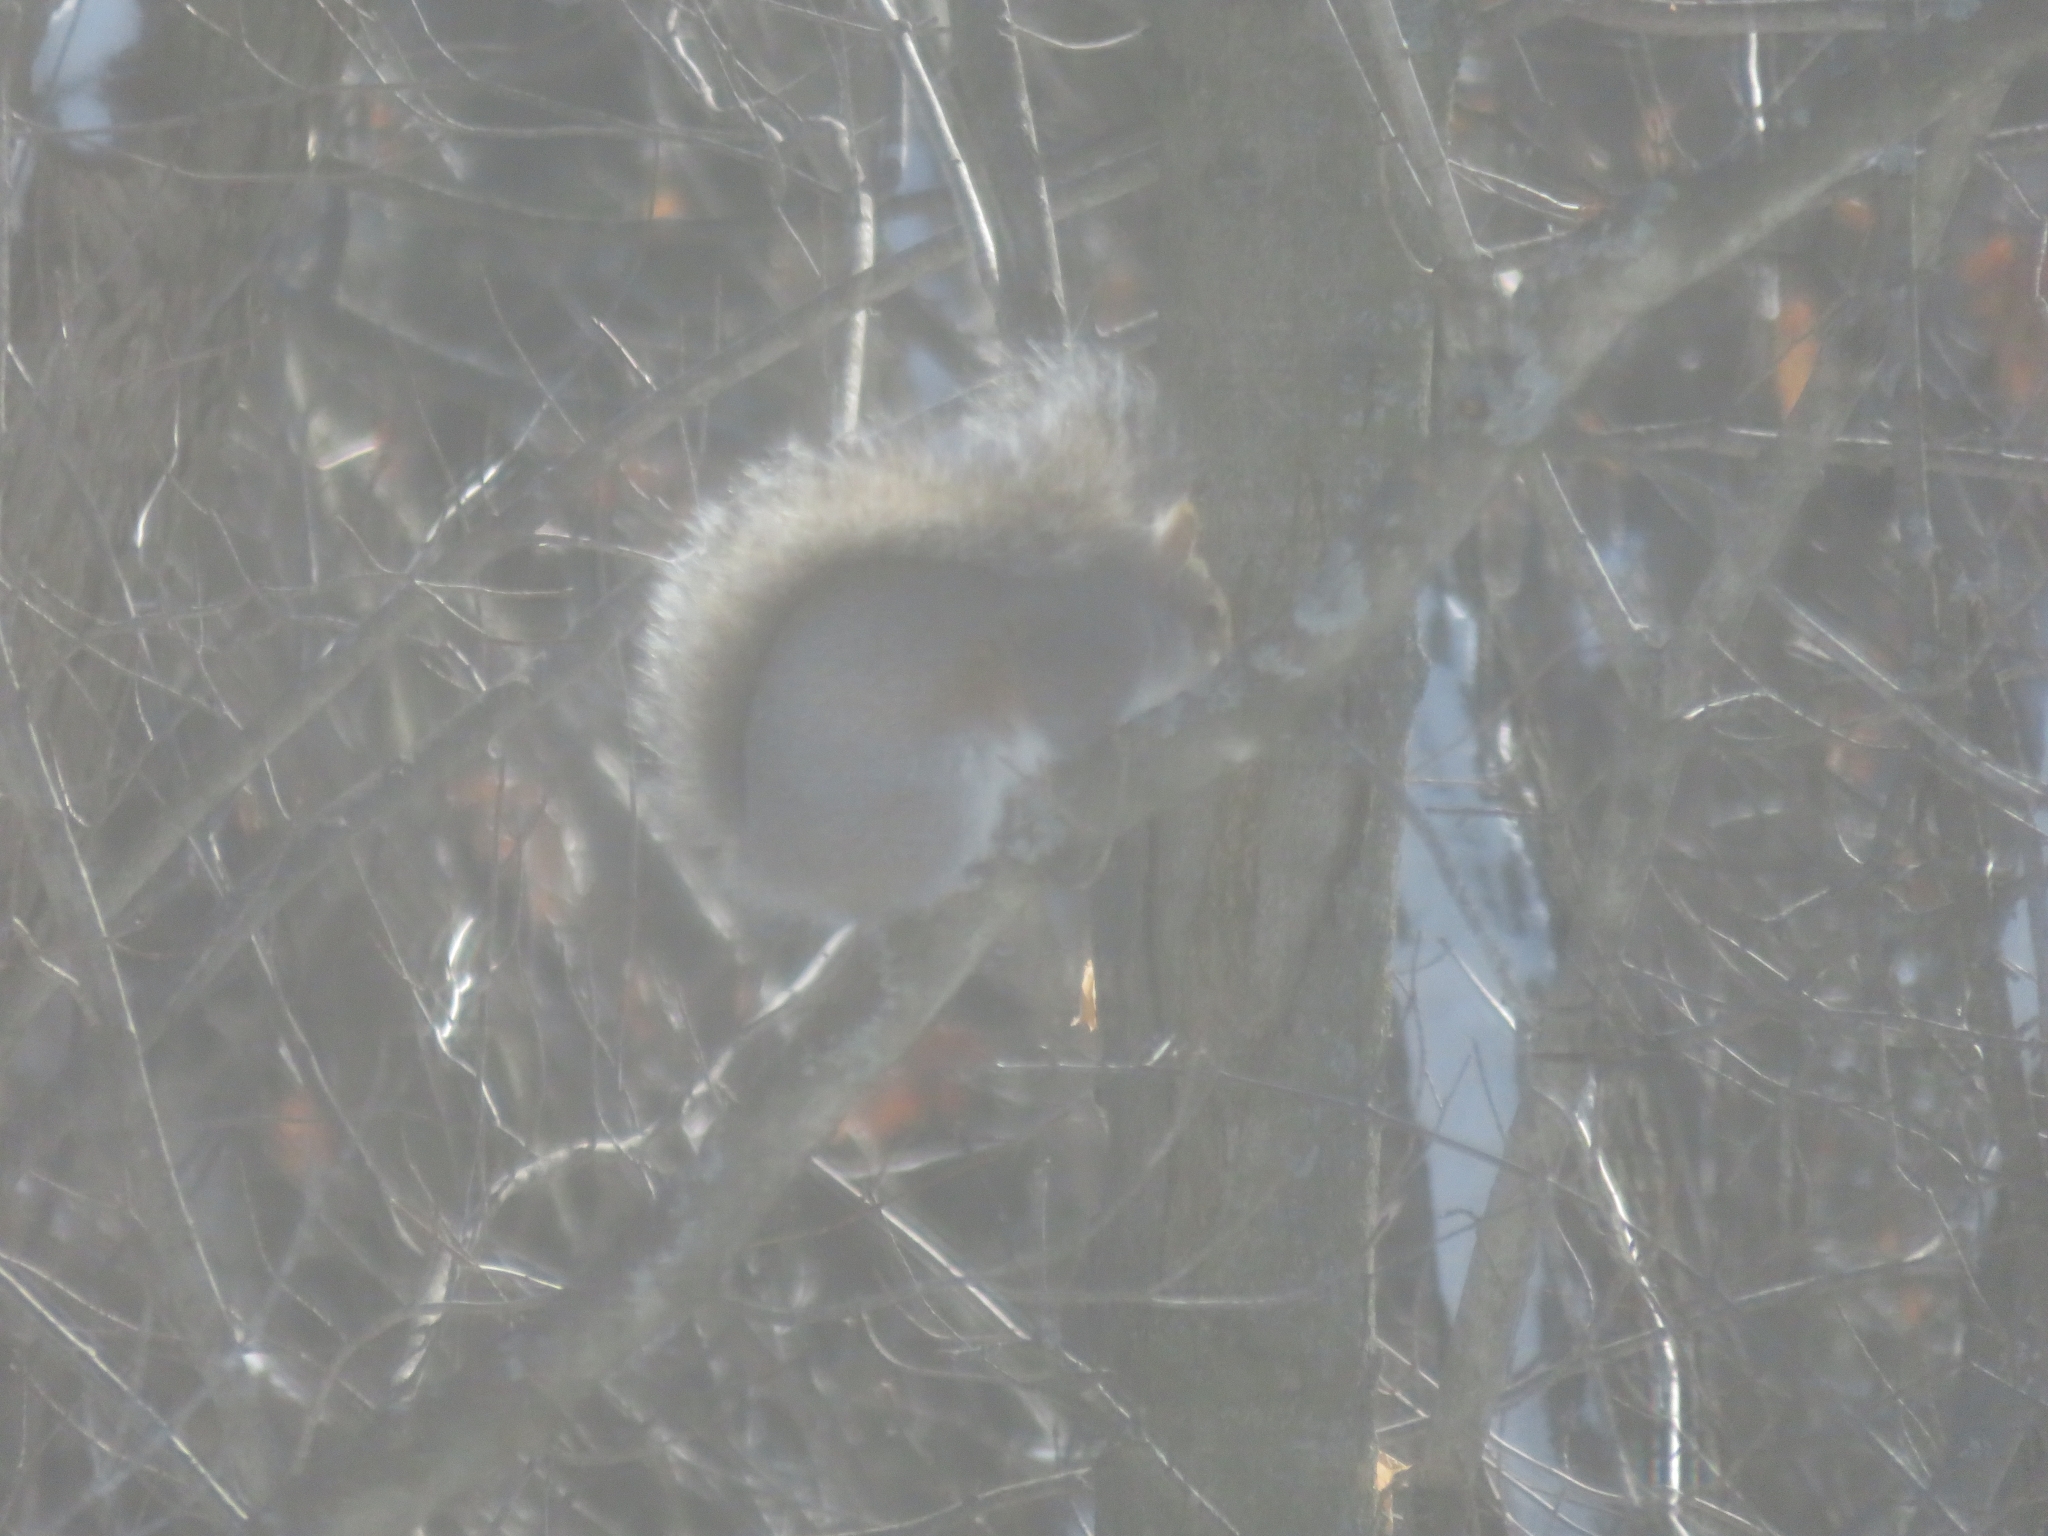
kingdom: Animalia
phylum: Chordata
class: Mammalia
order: Rodentia
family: Sciuridae
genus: Sciurus
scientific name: Sciurus carolinensis
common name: Eastern gray squirrel
